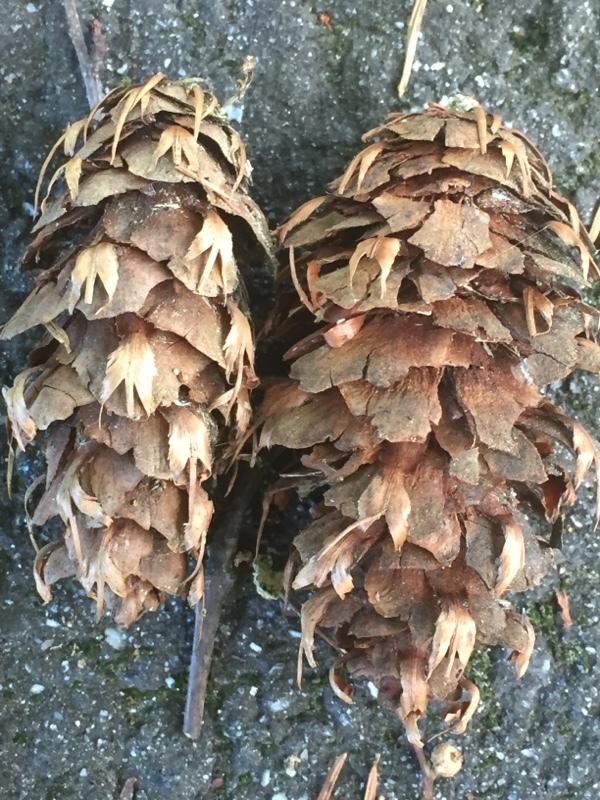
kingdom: Plantae
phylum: Tracheophyta
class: Pinopsida
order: Pinales
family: Pinaceae
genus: Pseudotsuga
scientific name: Pseudotsuga menziesii
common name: Douglas fir
